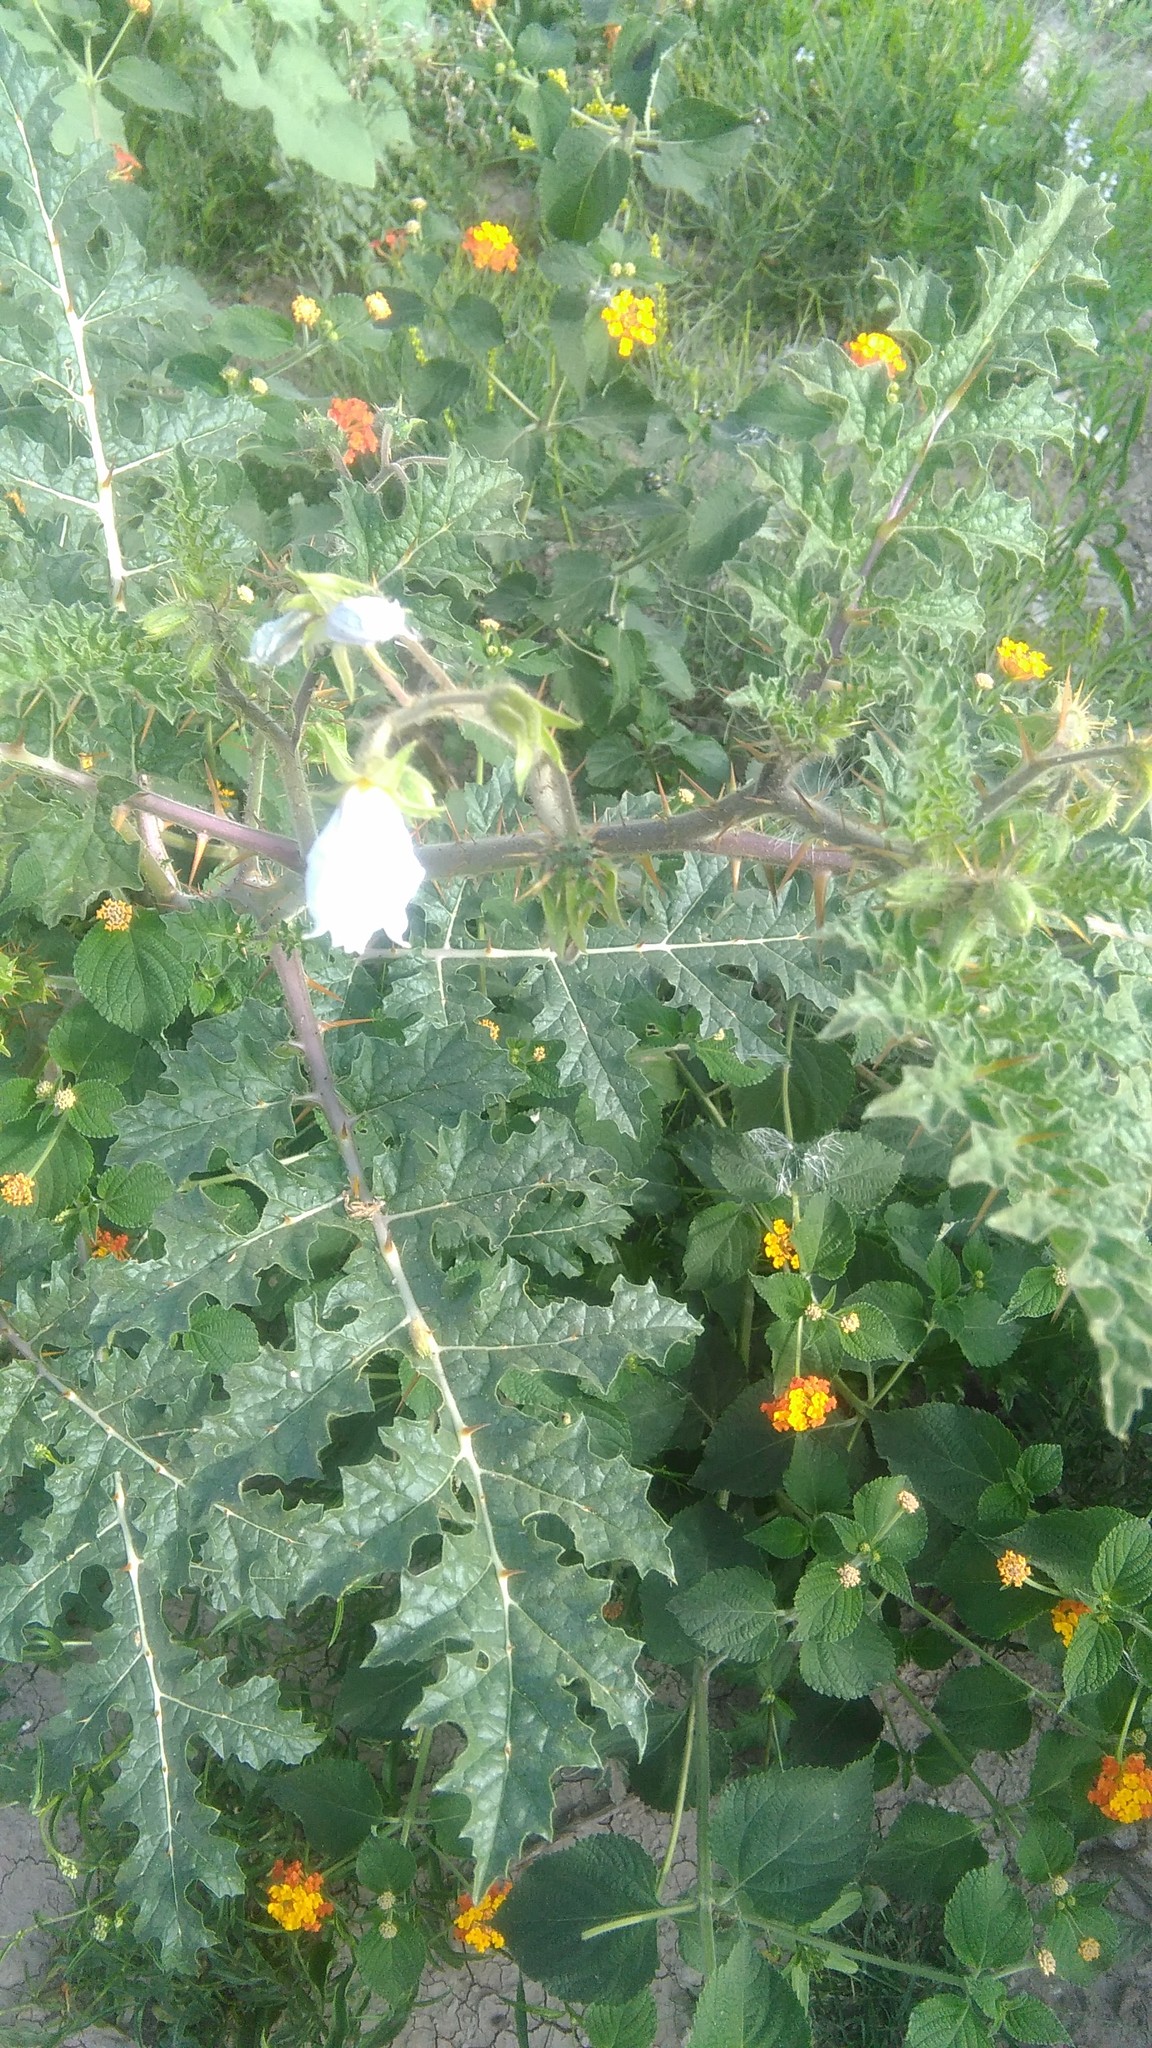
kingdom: Plantae
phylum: Tracheophyta
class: Magnoliopsida
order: Solanales
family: Solanaceae
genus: Solanum
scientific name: Solanum sisymbriifolium
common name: Red buffalo-bur
